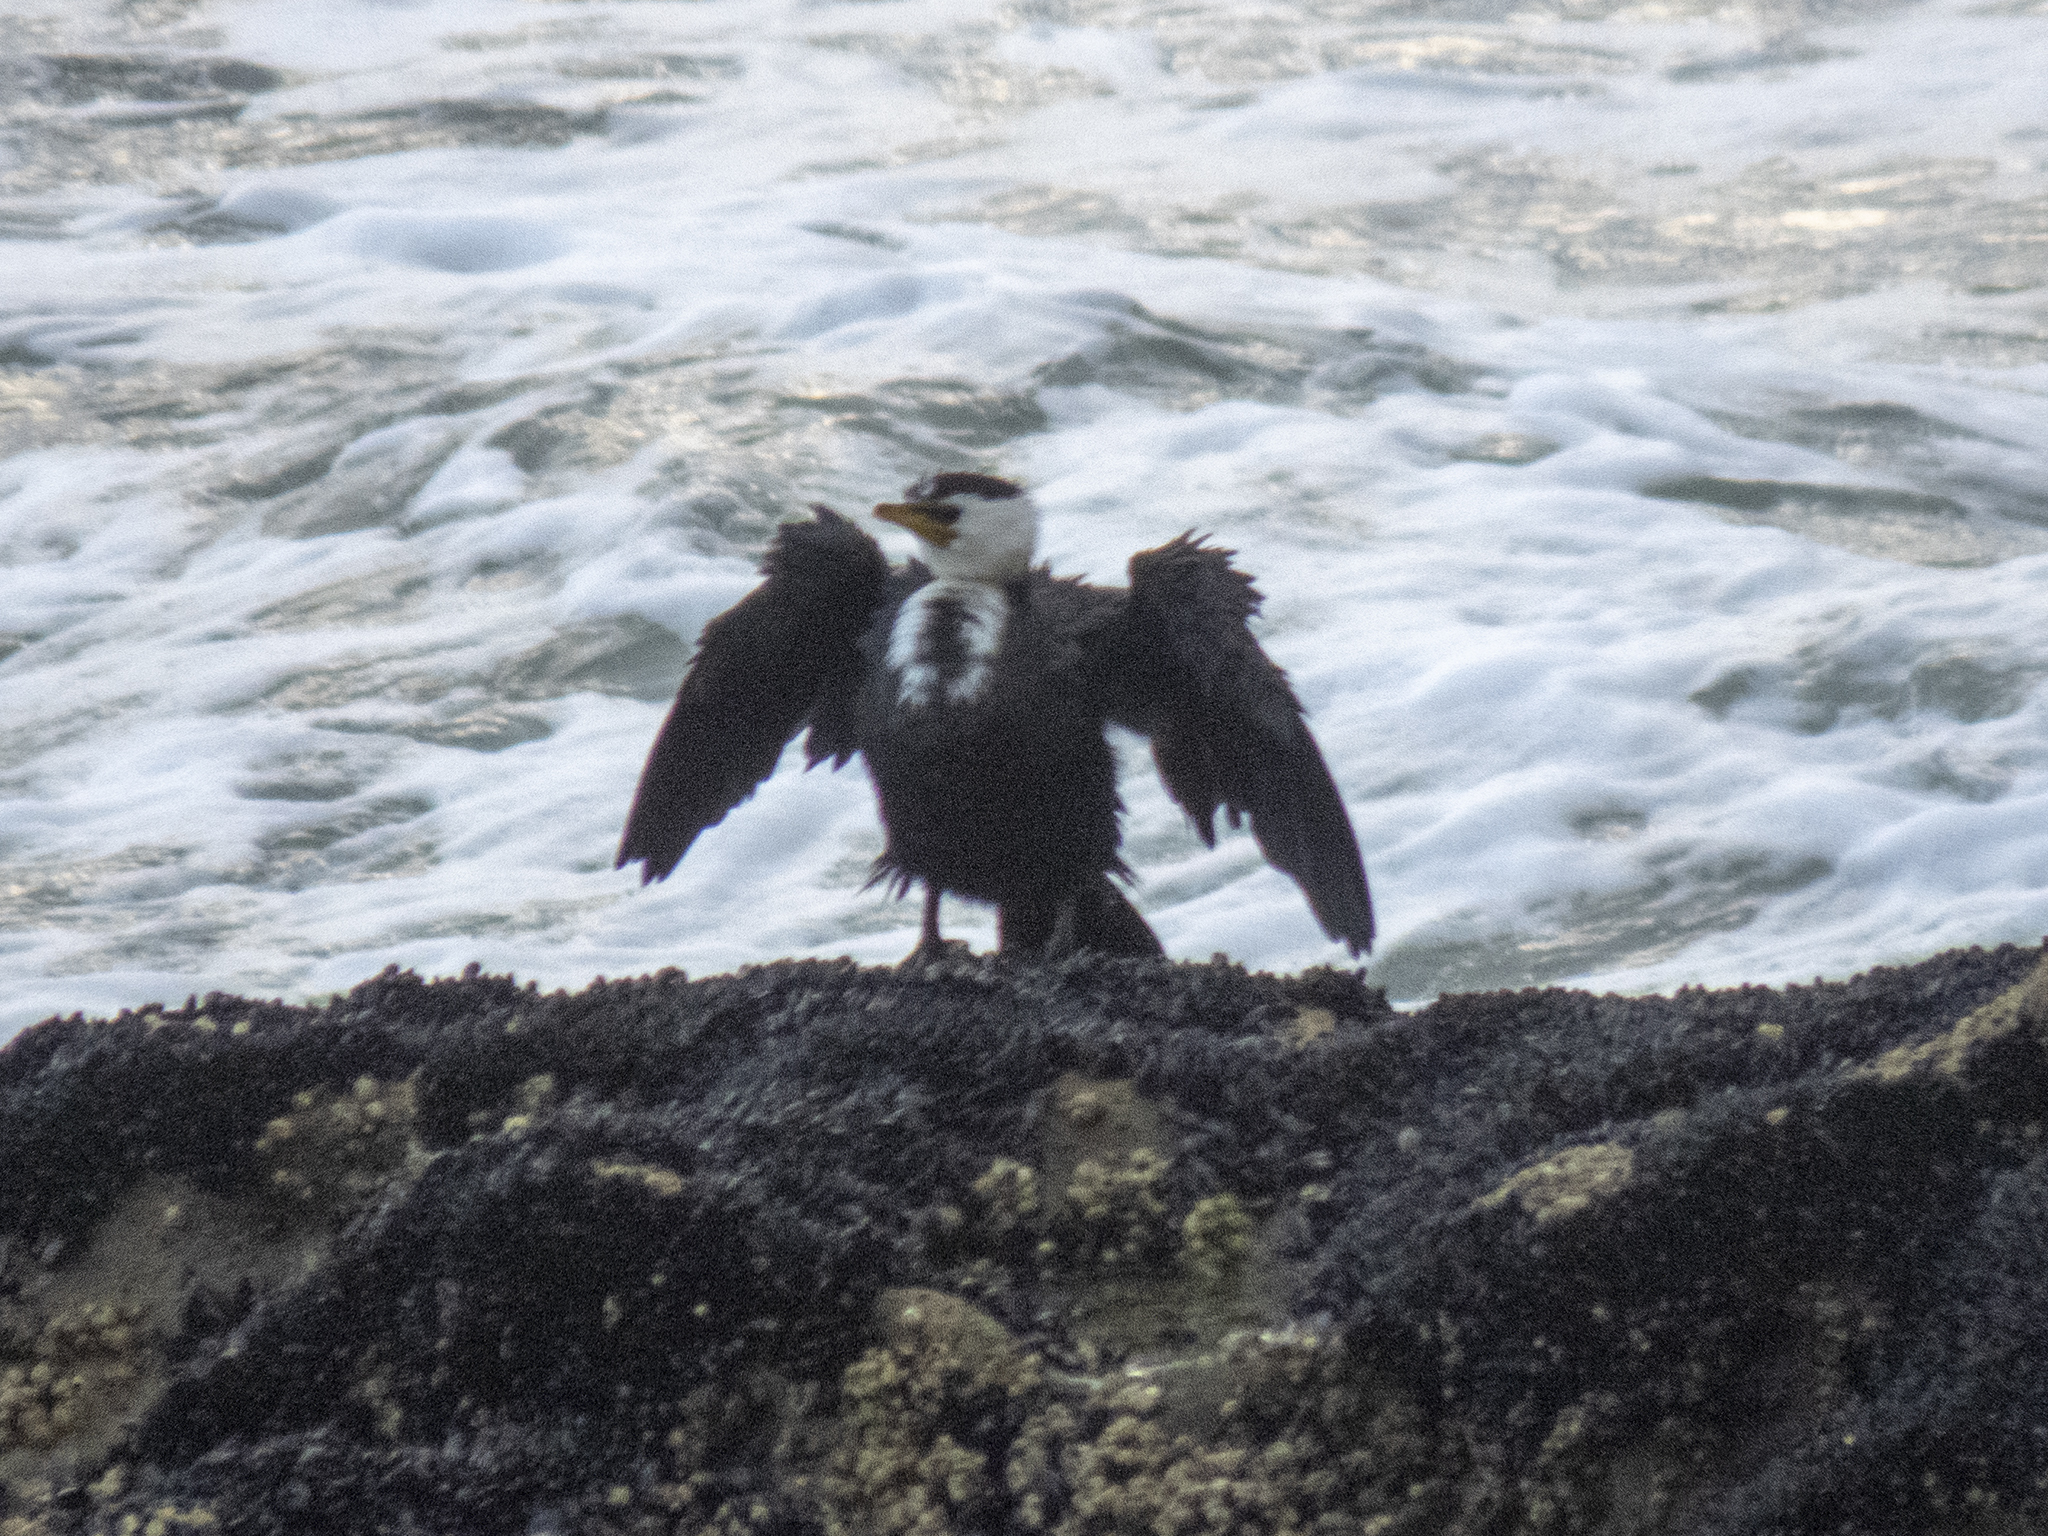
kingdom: Animalia
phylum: Chordata
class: Aves
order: Suliformes
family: Phalacrocoracidae
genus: Microcarbo
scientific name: Microcarbo melanoleucos
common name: Little pied cormorant
